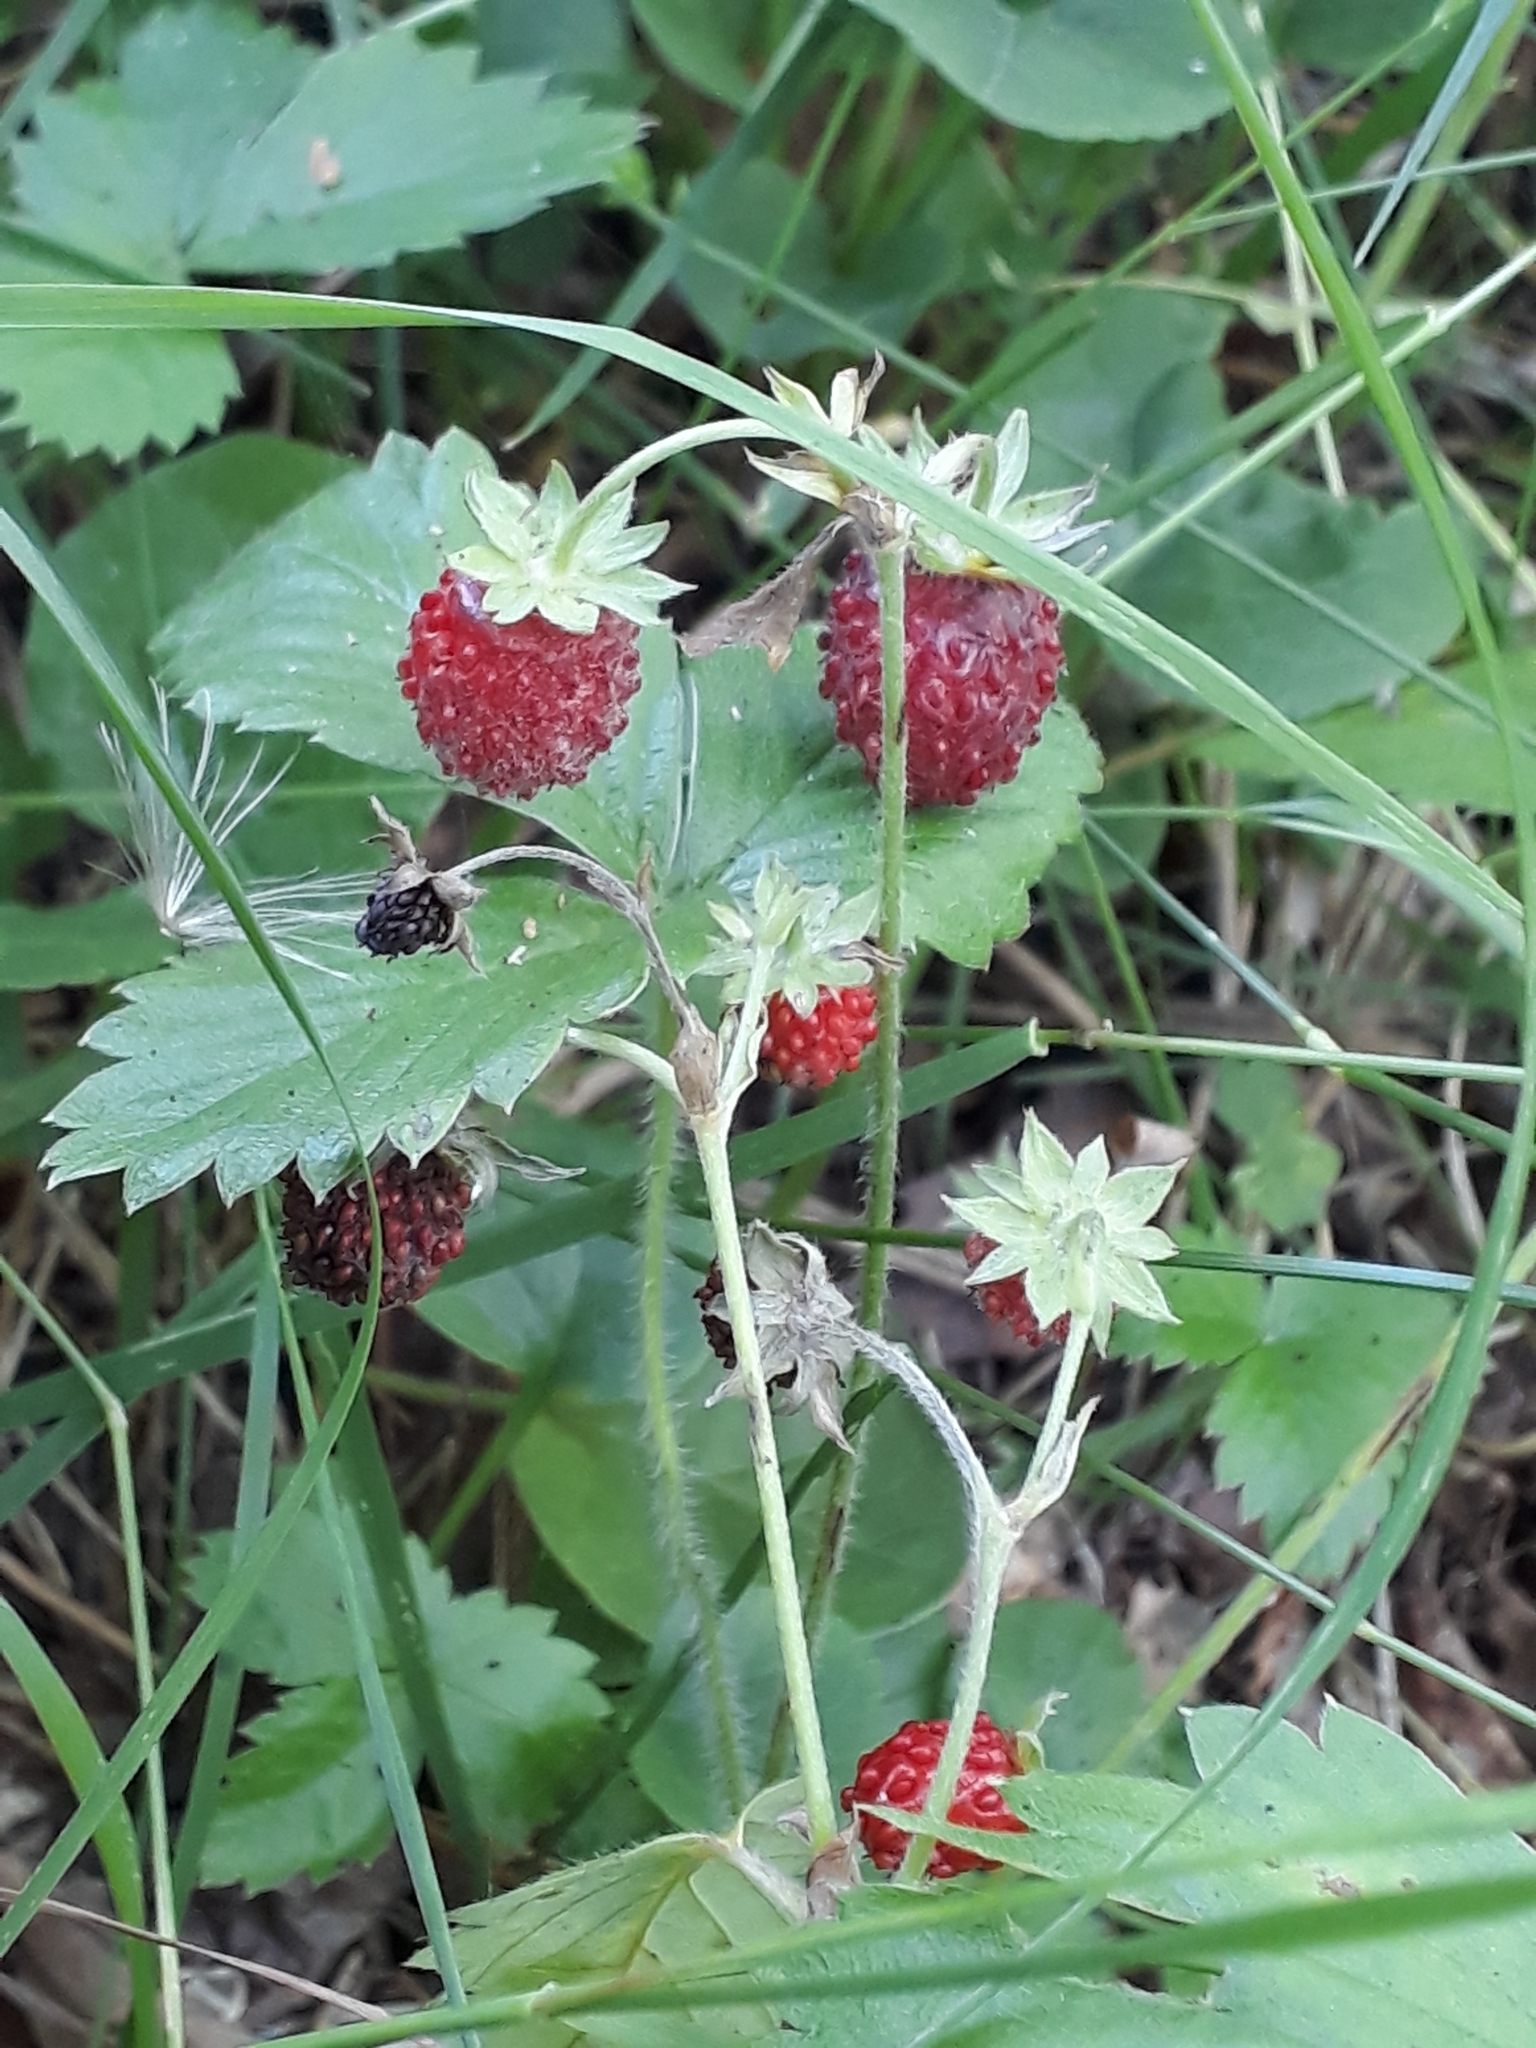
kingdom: Plantae
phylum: Tracheophyta
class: Magnoliopsida
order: Rosales
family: Rosaceae
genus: Fragaria
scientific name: Fragaria vesca
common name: Wild strawberry
